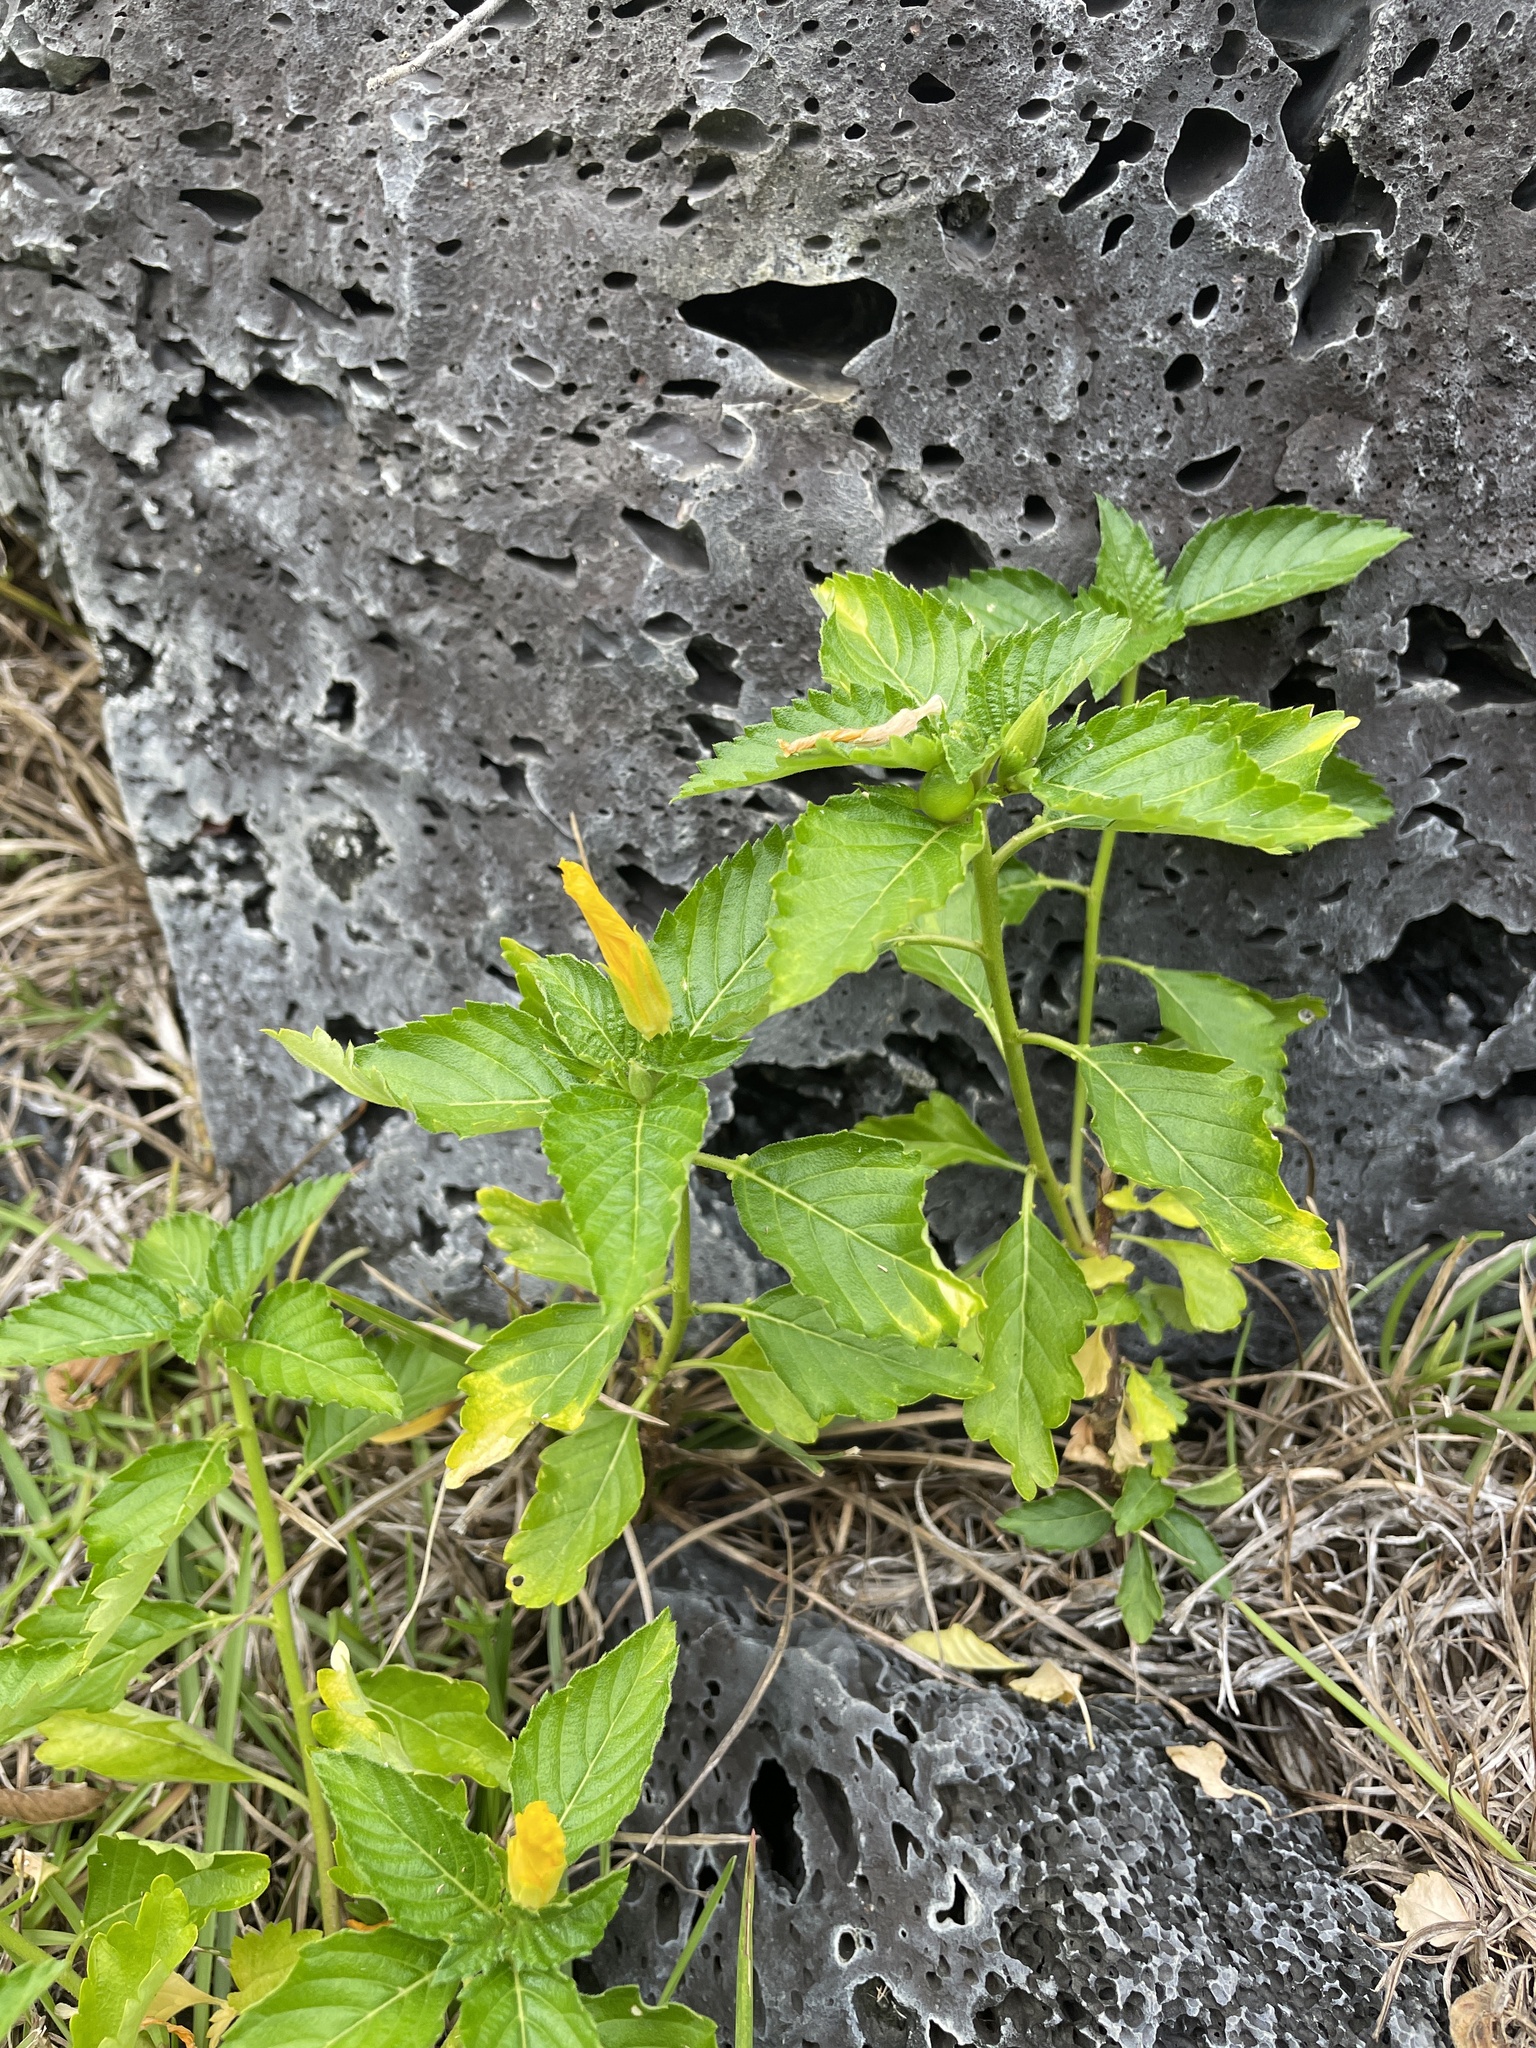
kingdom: Plantae
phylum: Tracheophyta
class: Magnoliopsida
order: Malpighiales
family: Turneraceae
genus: Turnera
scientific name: Turnera ulmifolia
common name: Ramgoat dashalong
